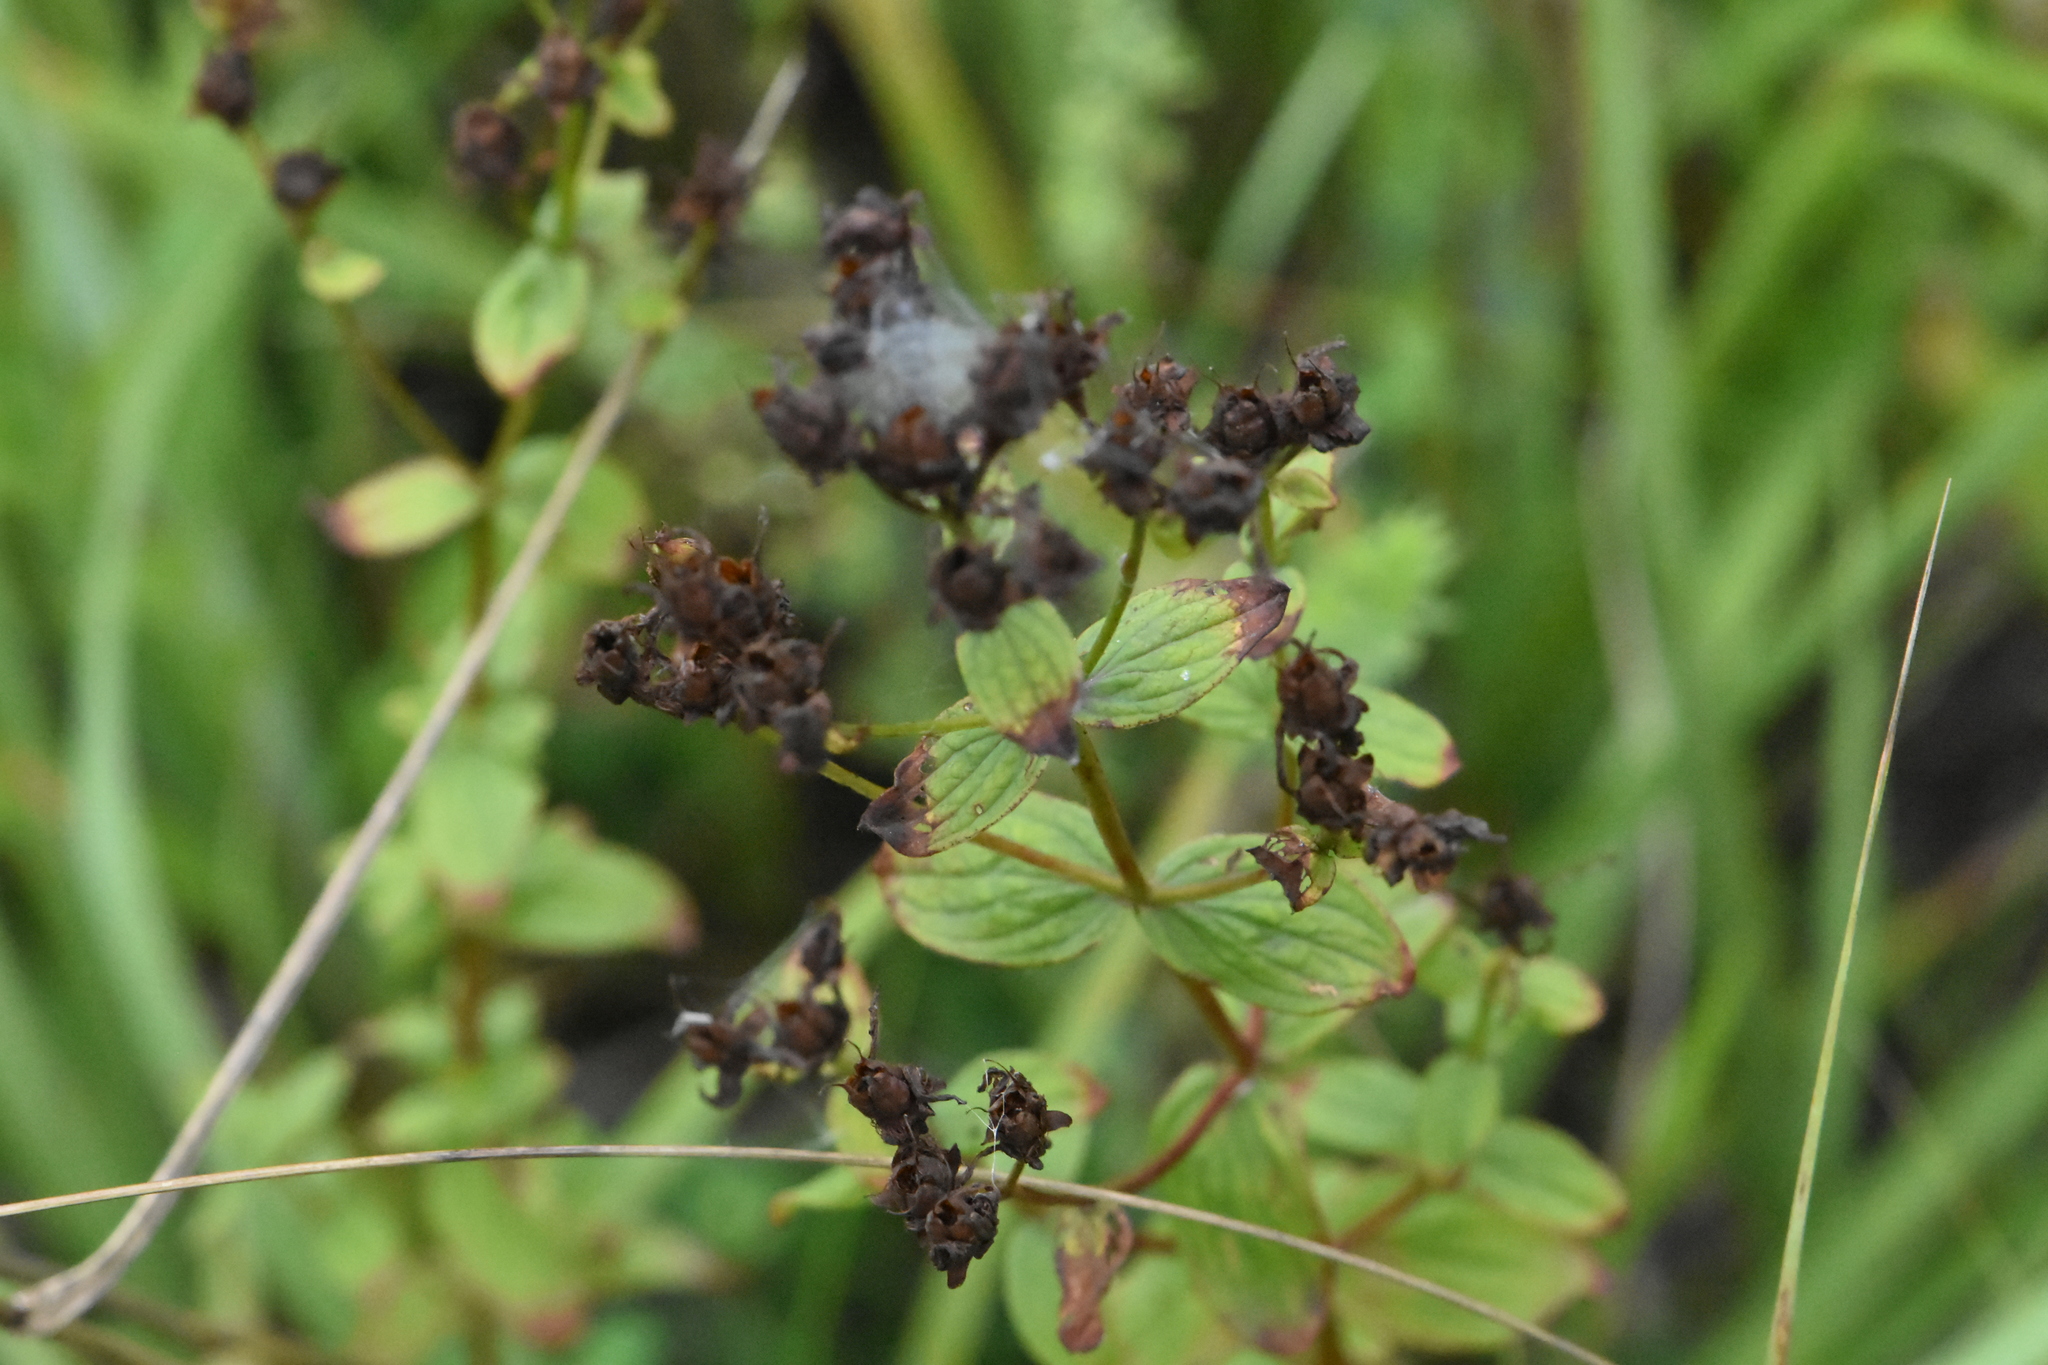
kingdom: Plantae
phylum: Tracheophyta
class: Magnoliopsida
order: Malpighiales
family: Hypericaceae
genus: Hypericum
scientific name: Hypericum maculatum
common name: Imperforate st. john's-wort
